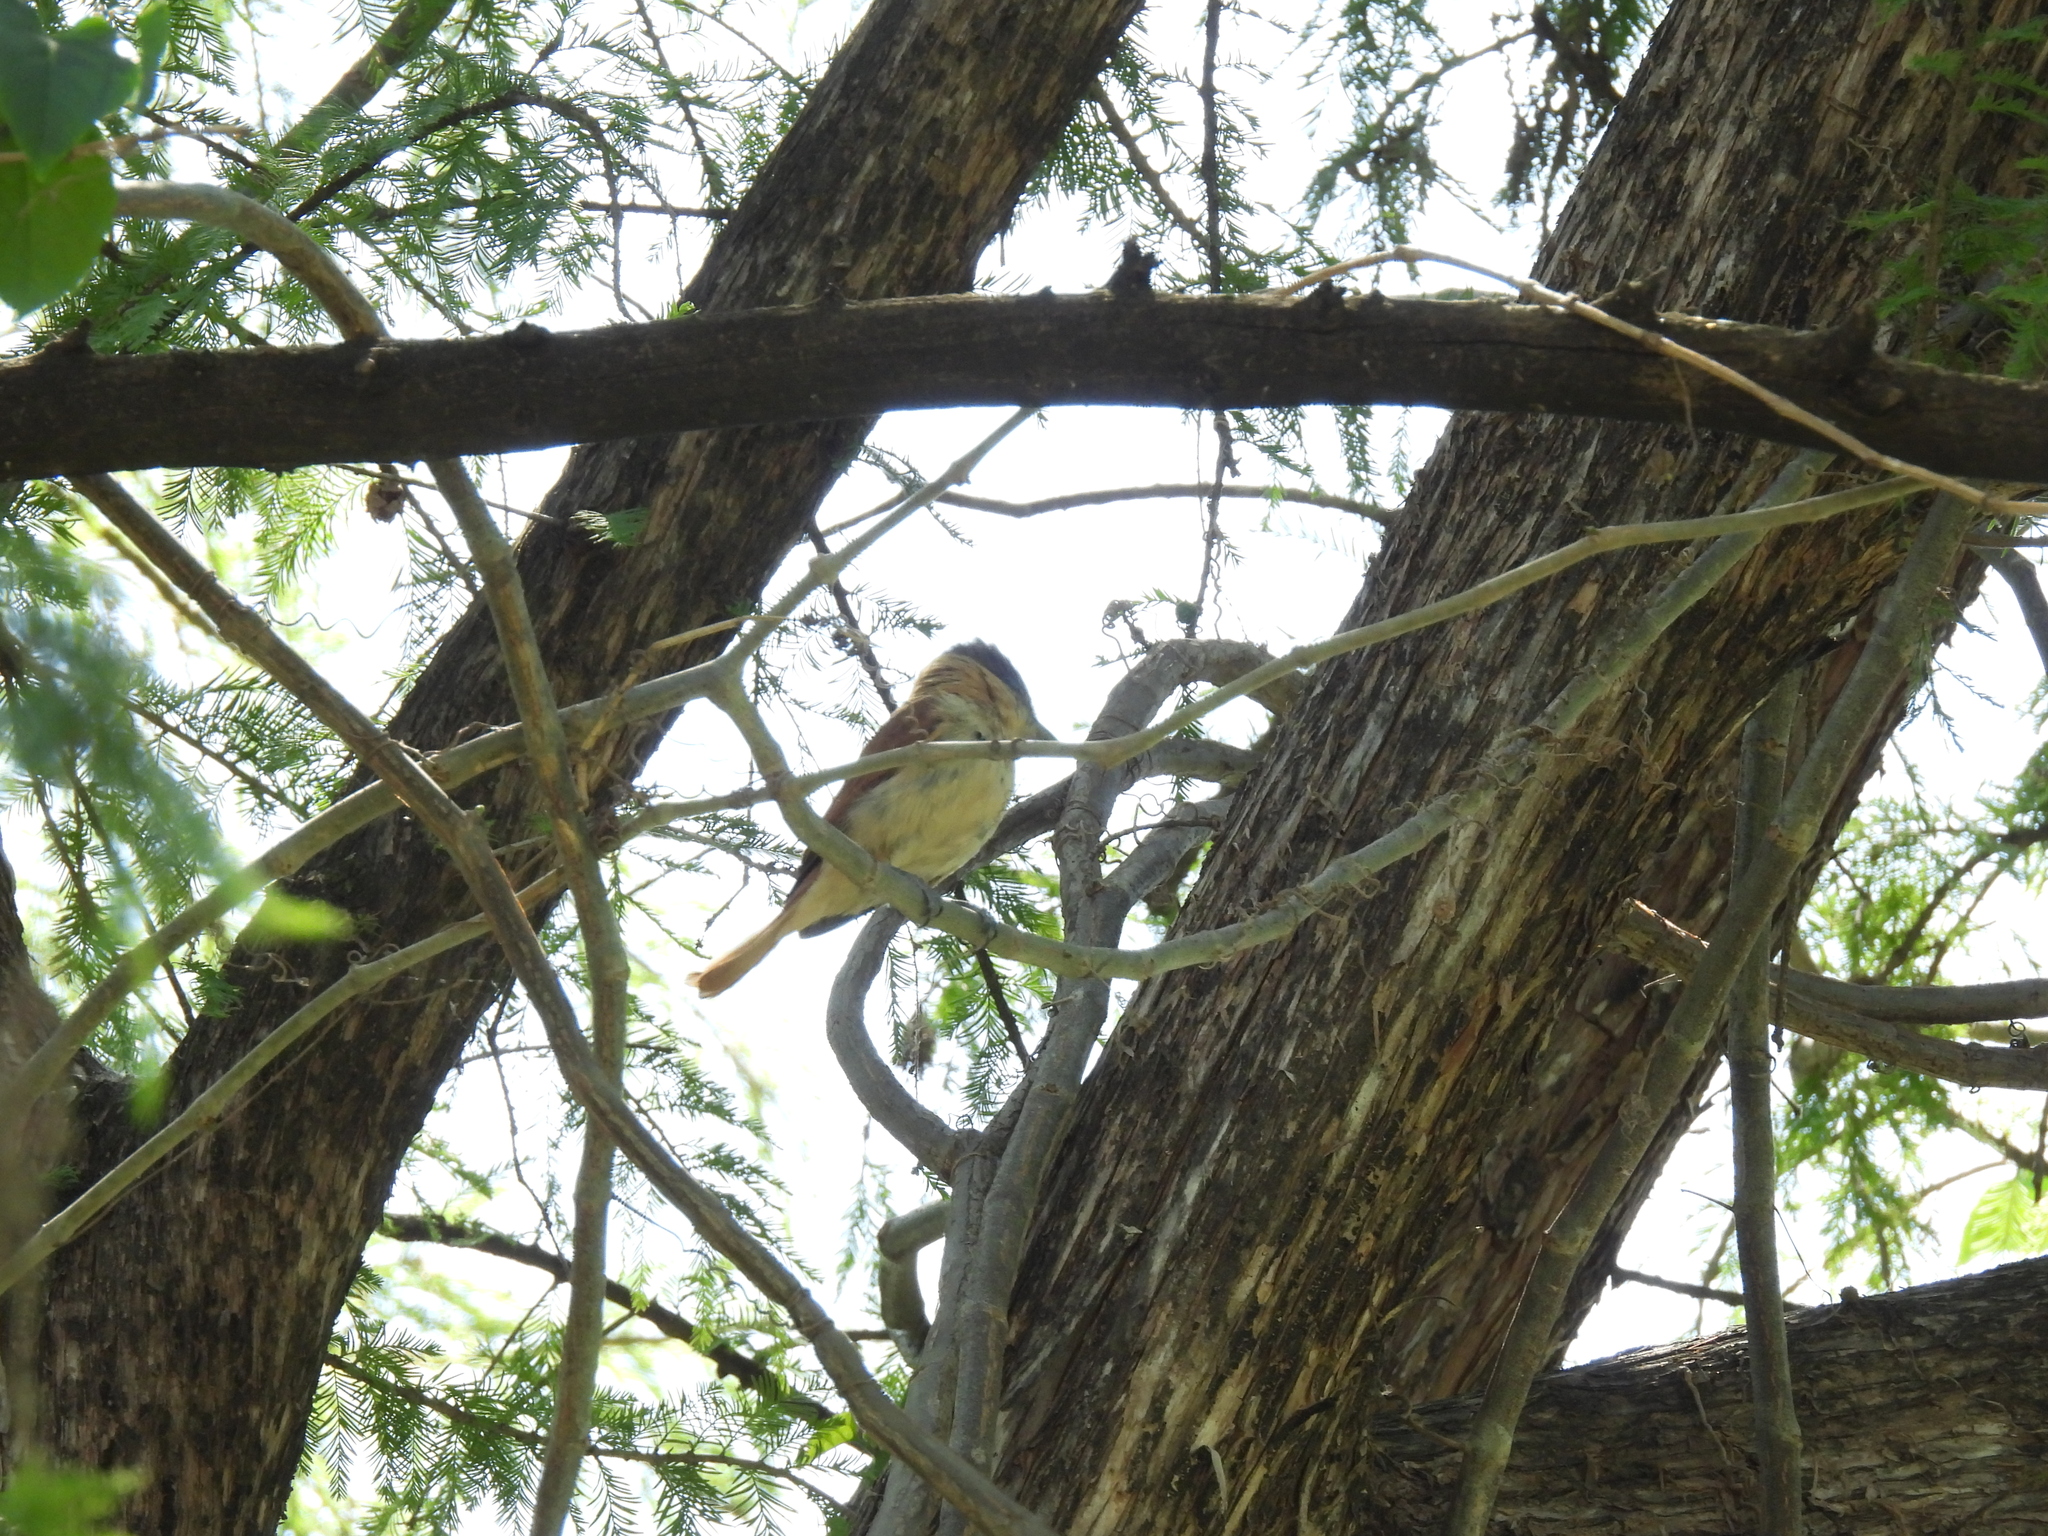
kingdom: Animalia
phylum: Chordata
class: Aves
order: Passeriformes
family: Cotingidae
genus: Pachyramphus
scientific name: Pachyramphus aglaiae
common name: Rose-throated becard
